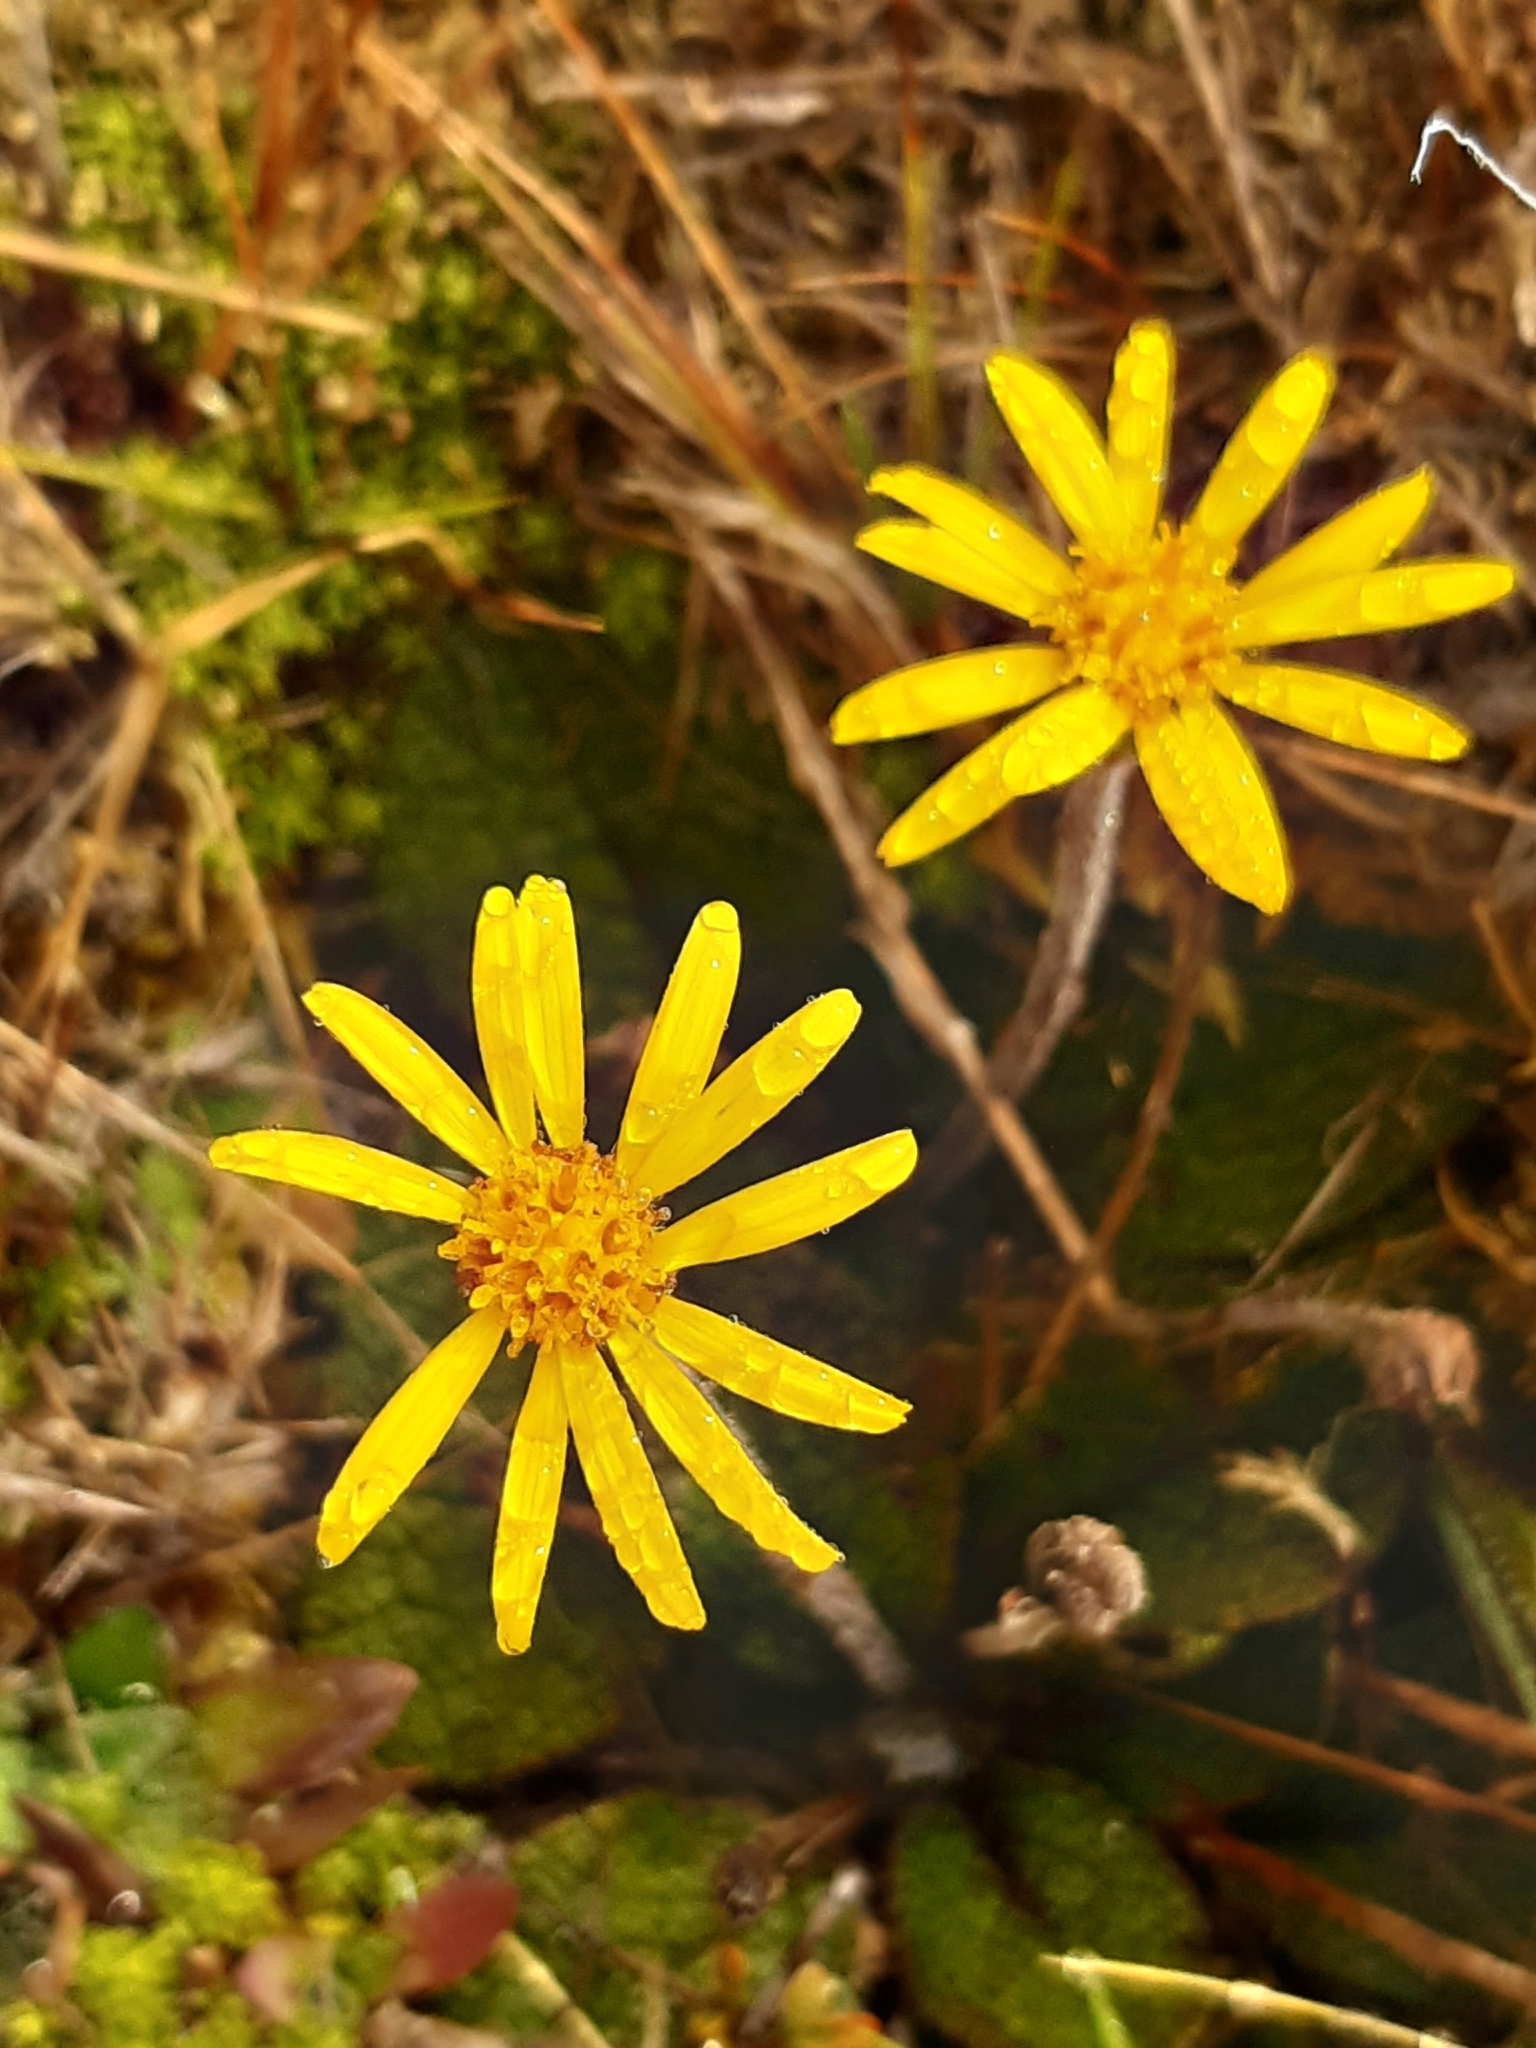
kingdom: Plantae
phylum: Tracheophyta
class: Magnoliopsida
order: Asterales
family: Asteraceae
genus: Brachyglottis
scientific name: Brachyglottis lagopus
